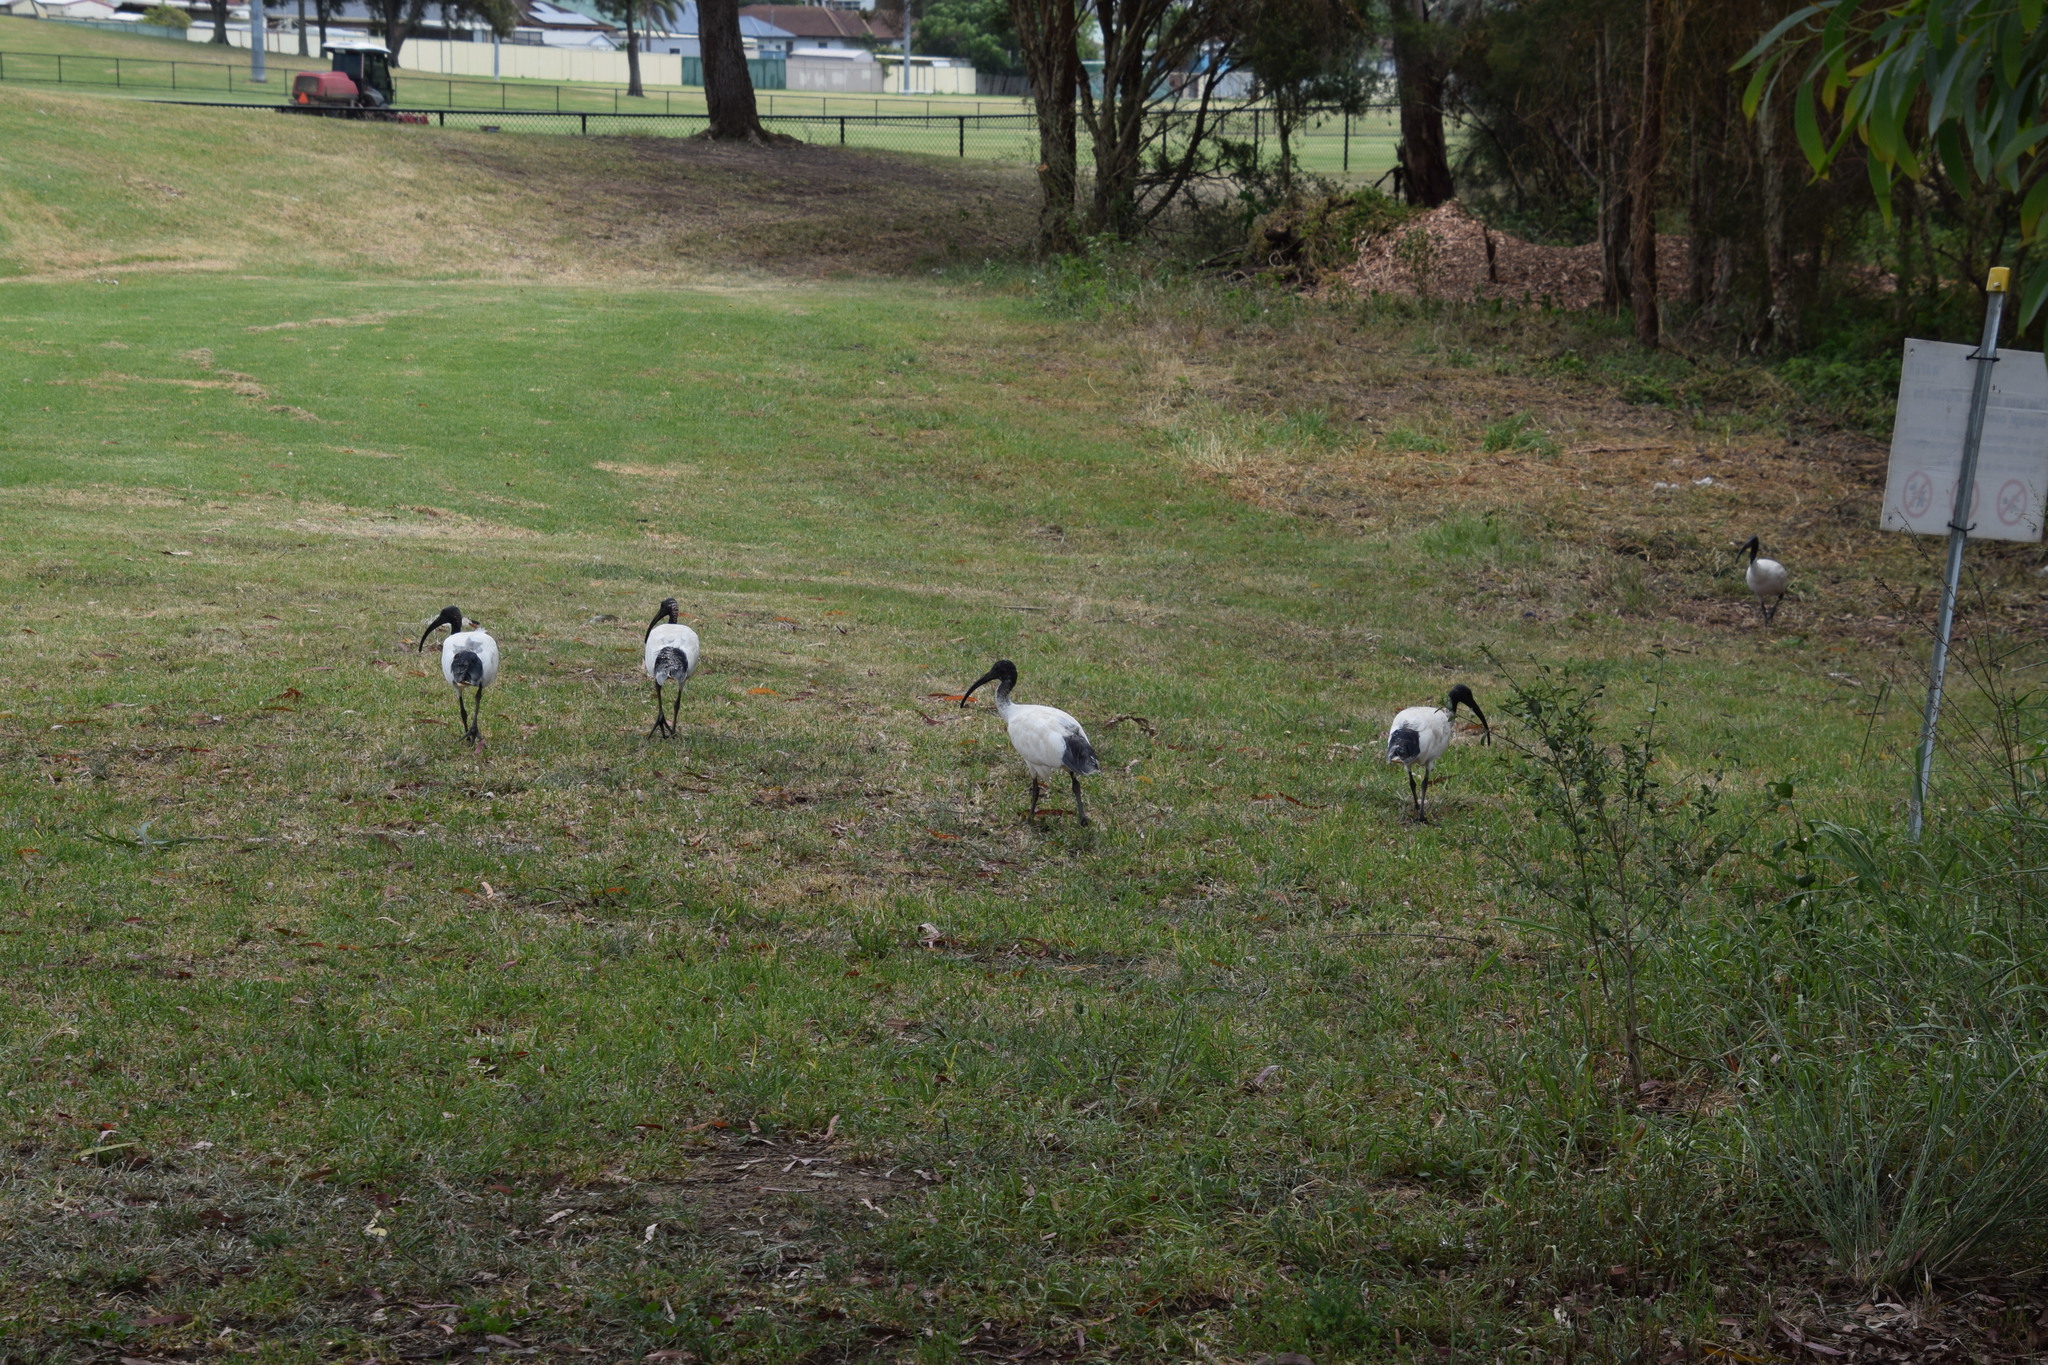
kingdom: Animalia
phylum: Chordata
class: Aves
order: Pelecaniformes
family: Threskiornithidae
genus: Threskiornis
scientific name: Threskiornis molucca
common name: Australian white ibis
